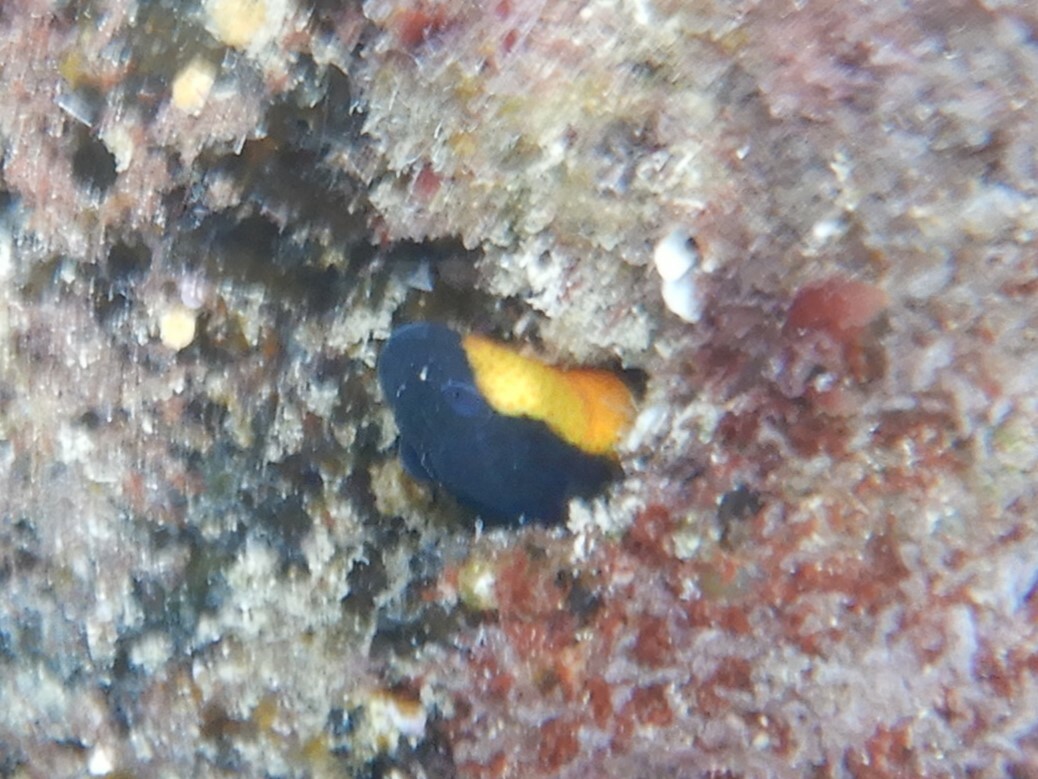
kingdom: Animalia
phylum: Chordata
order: Perciformes
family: Blenniidae
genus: Microlipophrys
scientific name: Microlipophrys canevae
